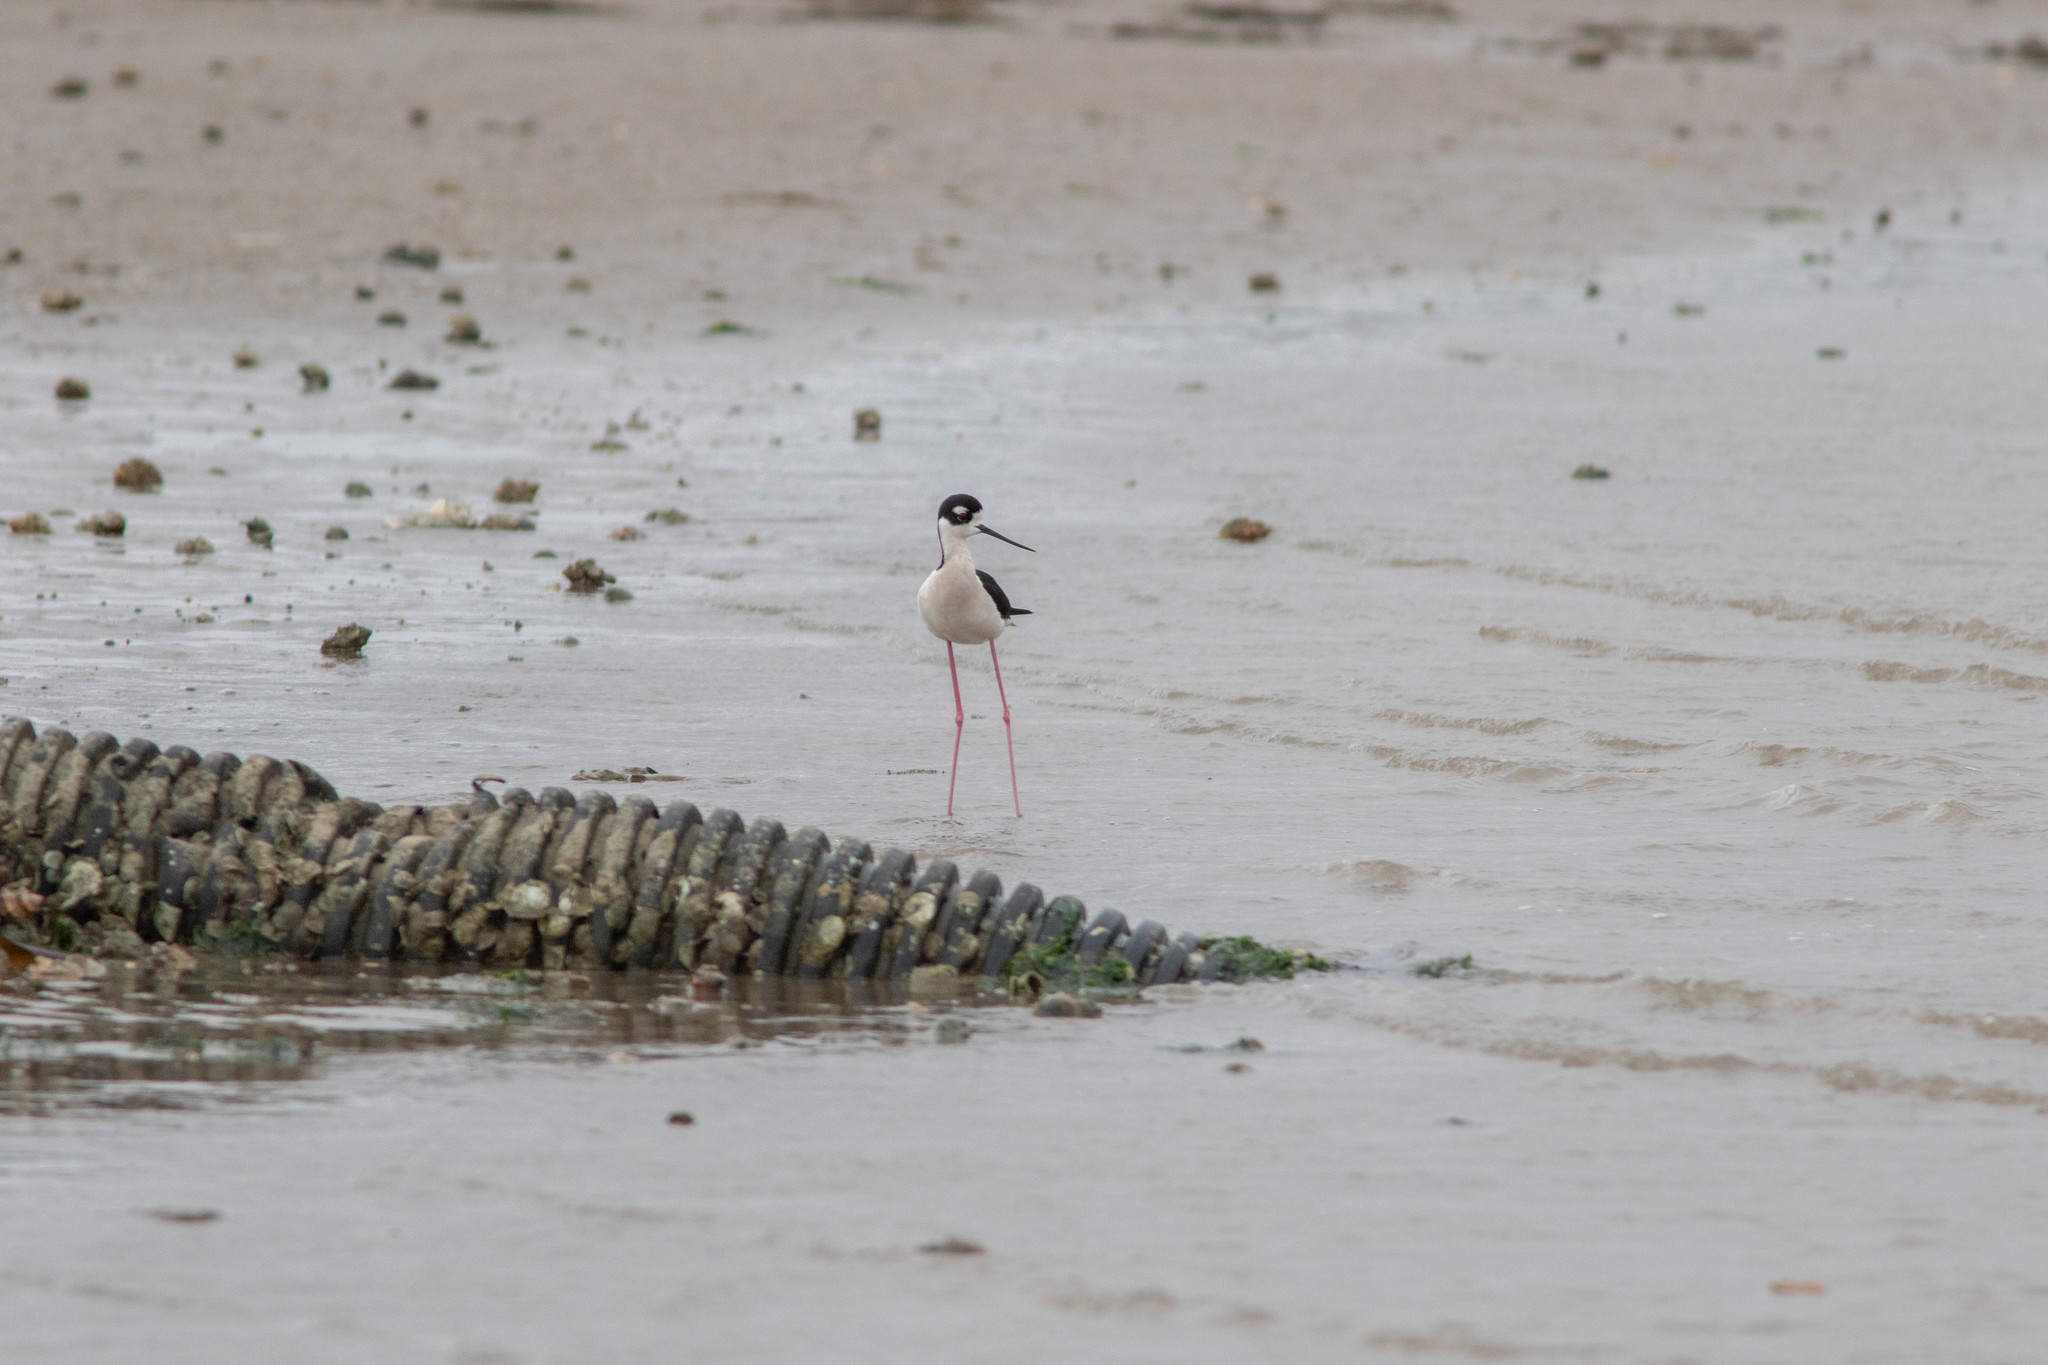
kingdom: Animalia
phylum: Chordata
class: Aves
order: Charadriiformes
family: Recurvirostridae
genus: Himantopus
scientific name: Himantopus mexicanus
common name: Black-necked stilt
